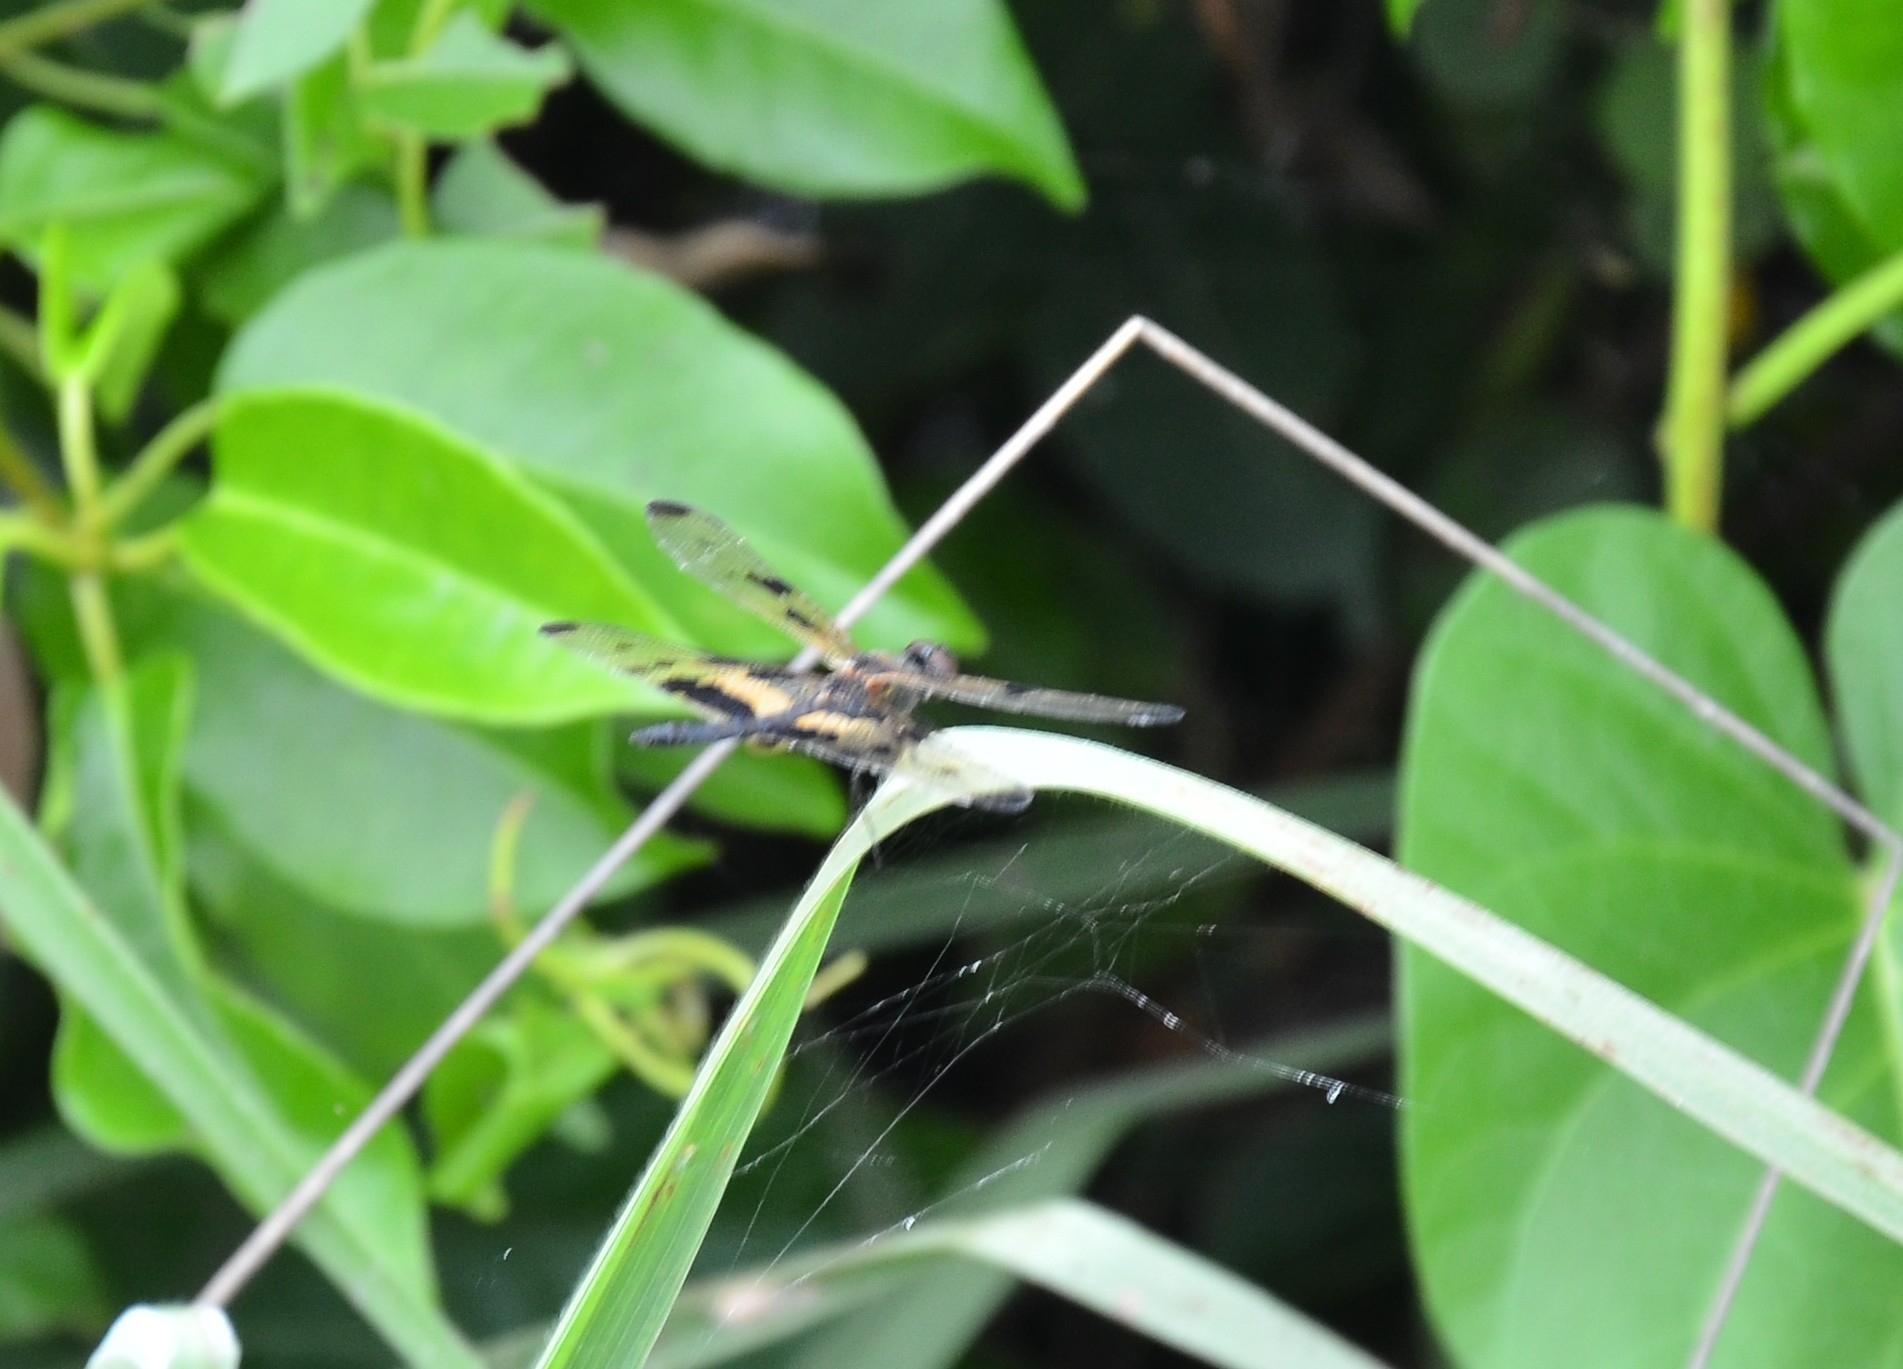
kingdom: Animalia
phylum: Arthropoda
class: Insecta
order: Odonata
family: Libellulidae
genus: Rhyothemis
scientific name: Rhyothemis variegata
